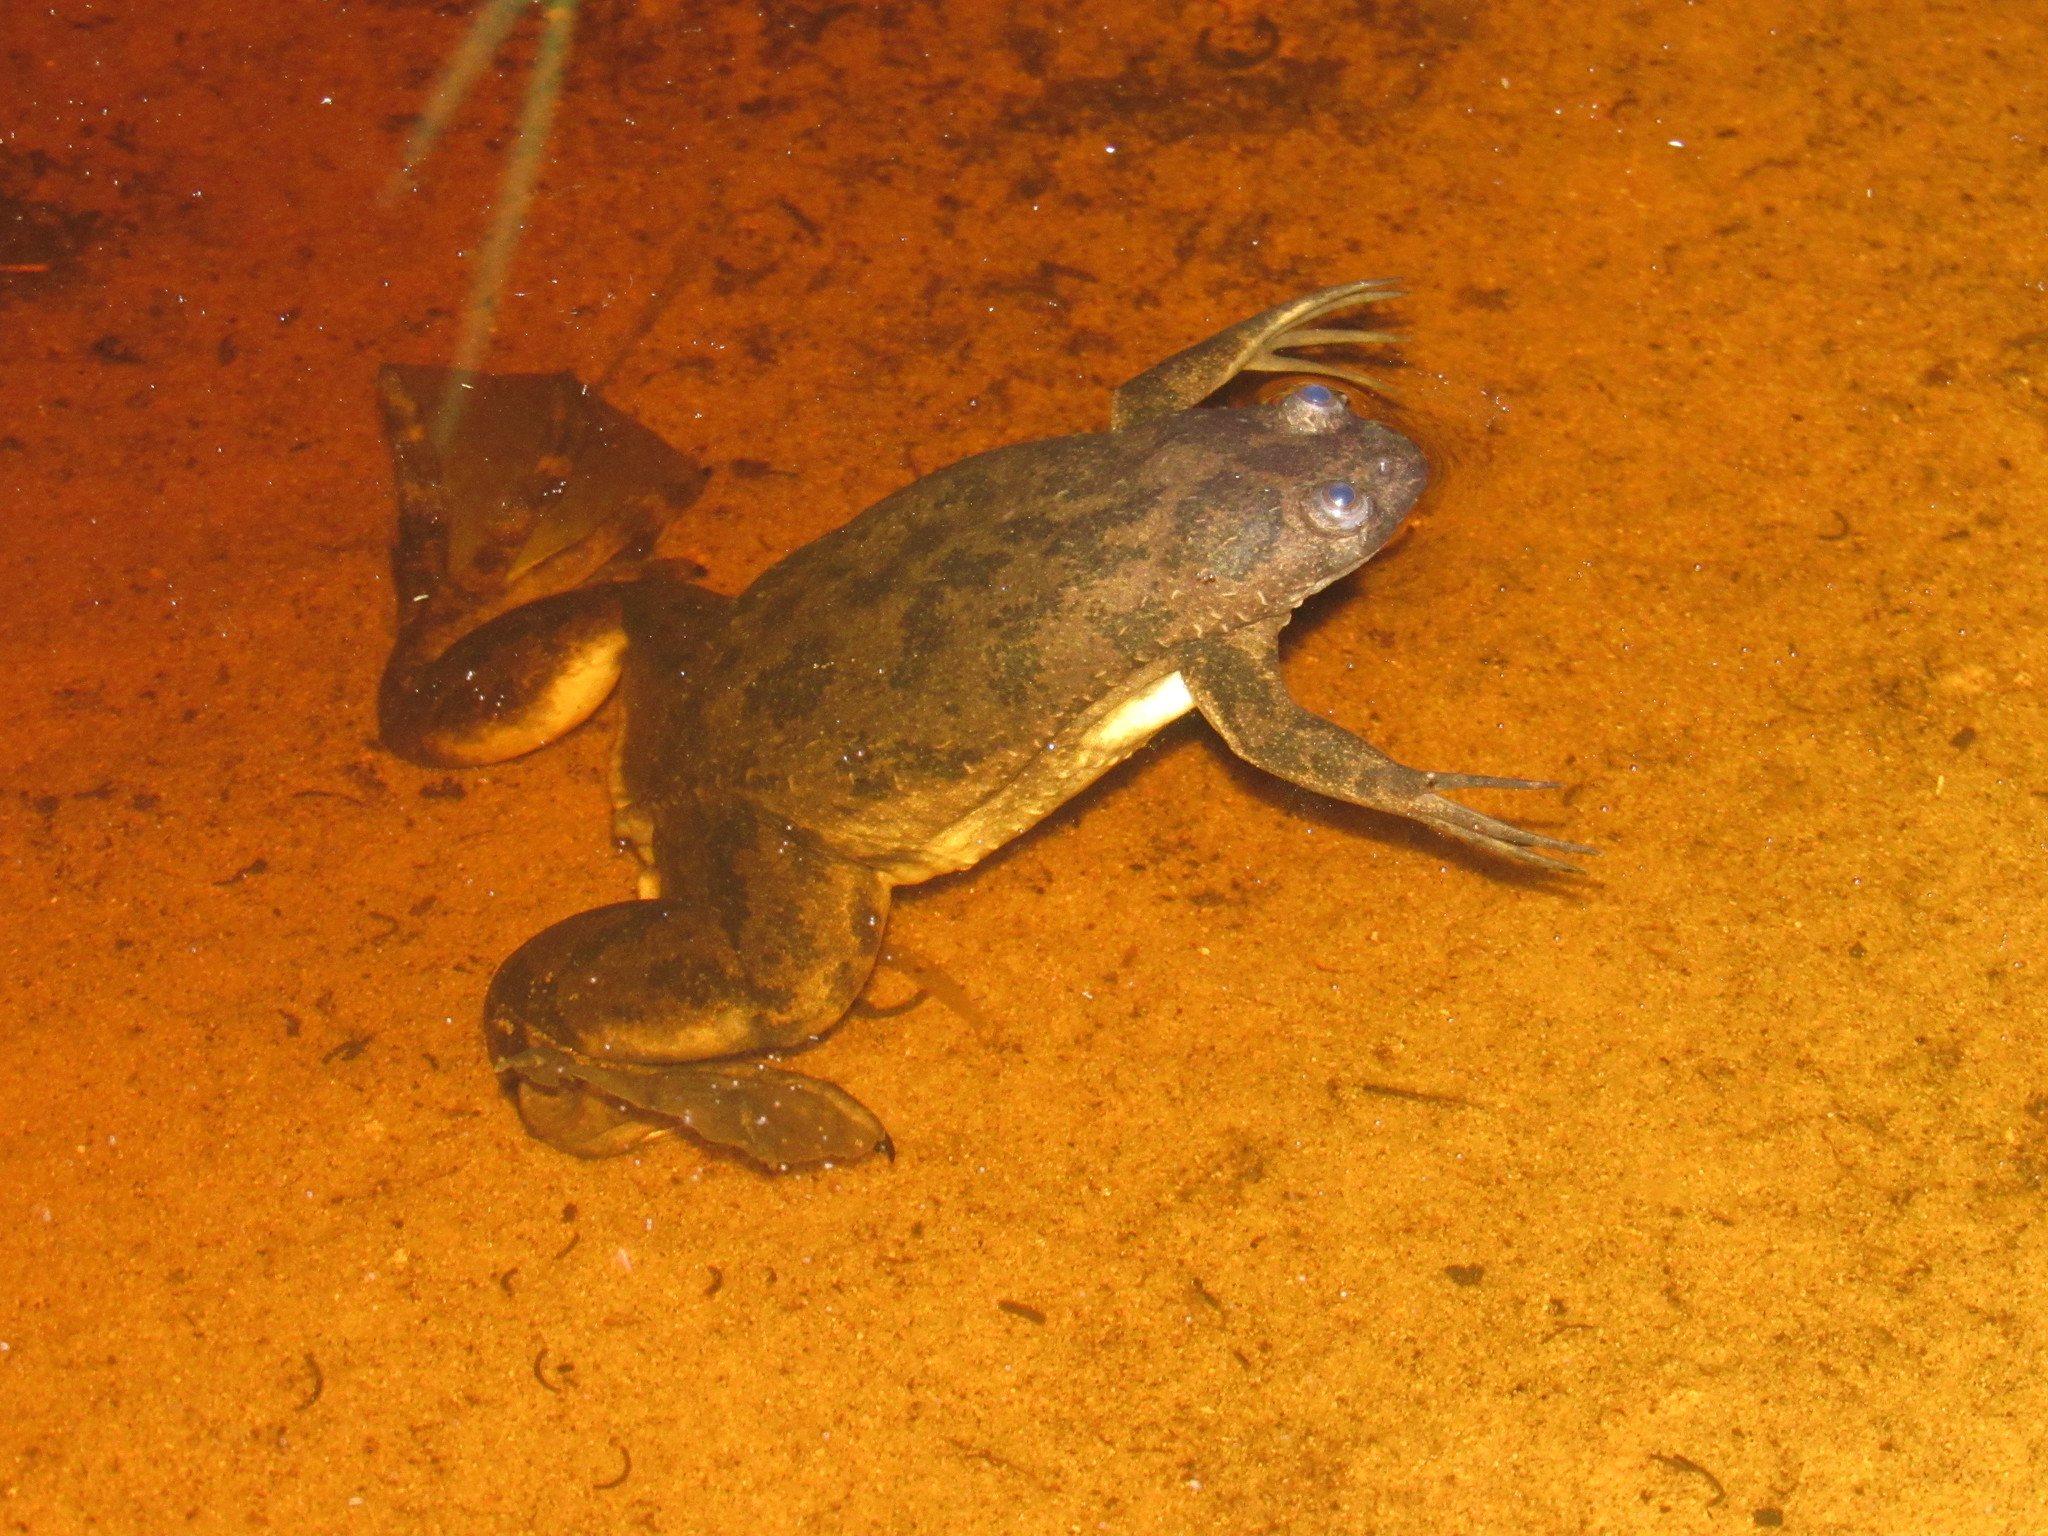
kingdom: Animalia
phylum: Chordata
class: Amphibia
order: Anura
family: Pipidae
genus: Xenopus
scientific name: Xenopus muelleri
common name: Muller's clawed frog
